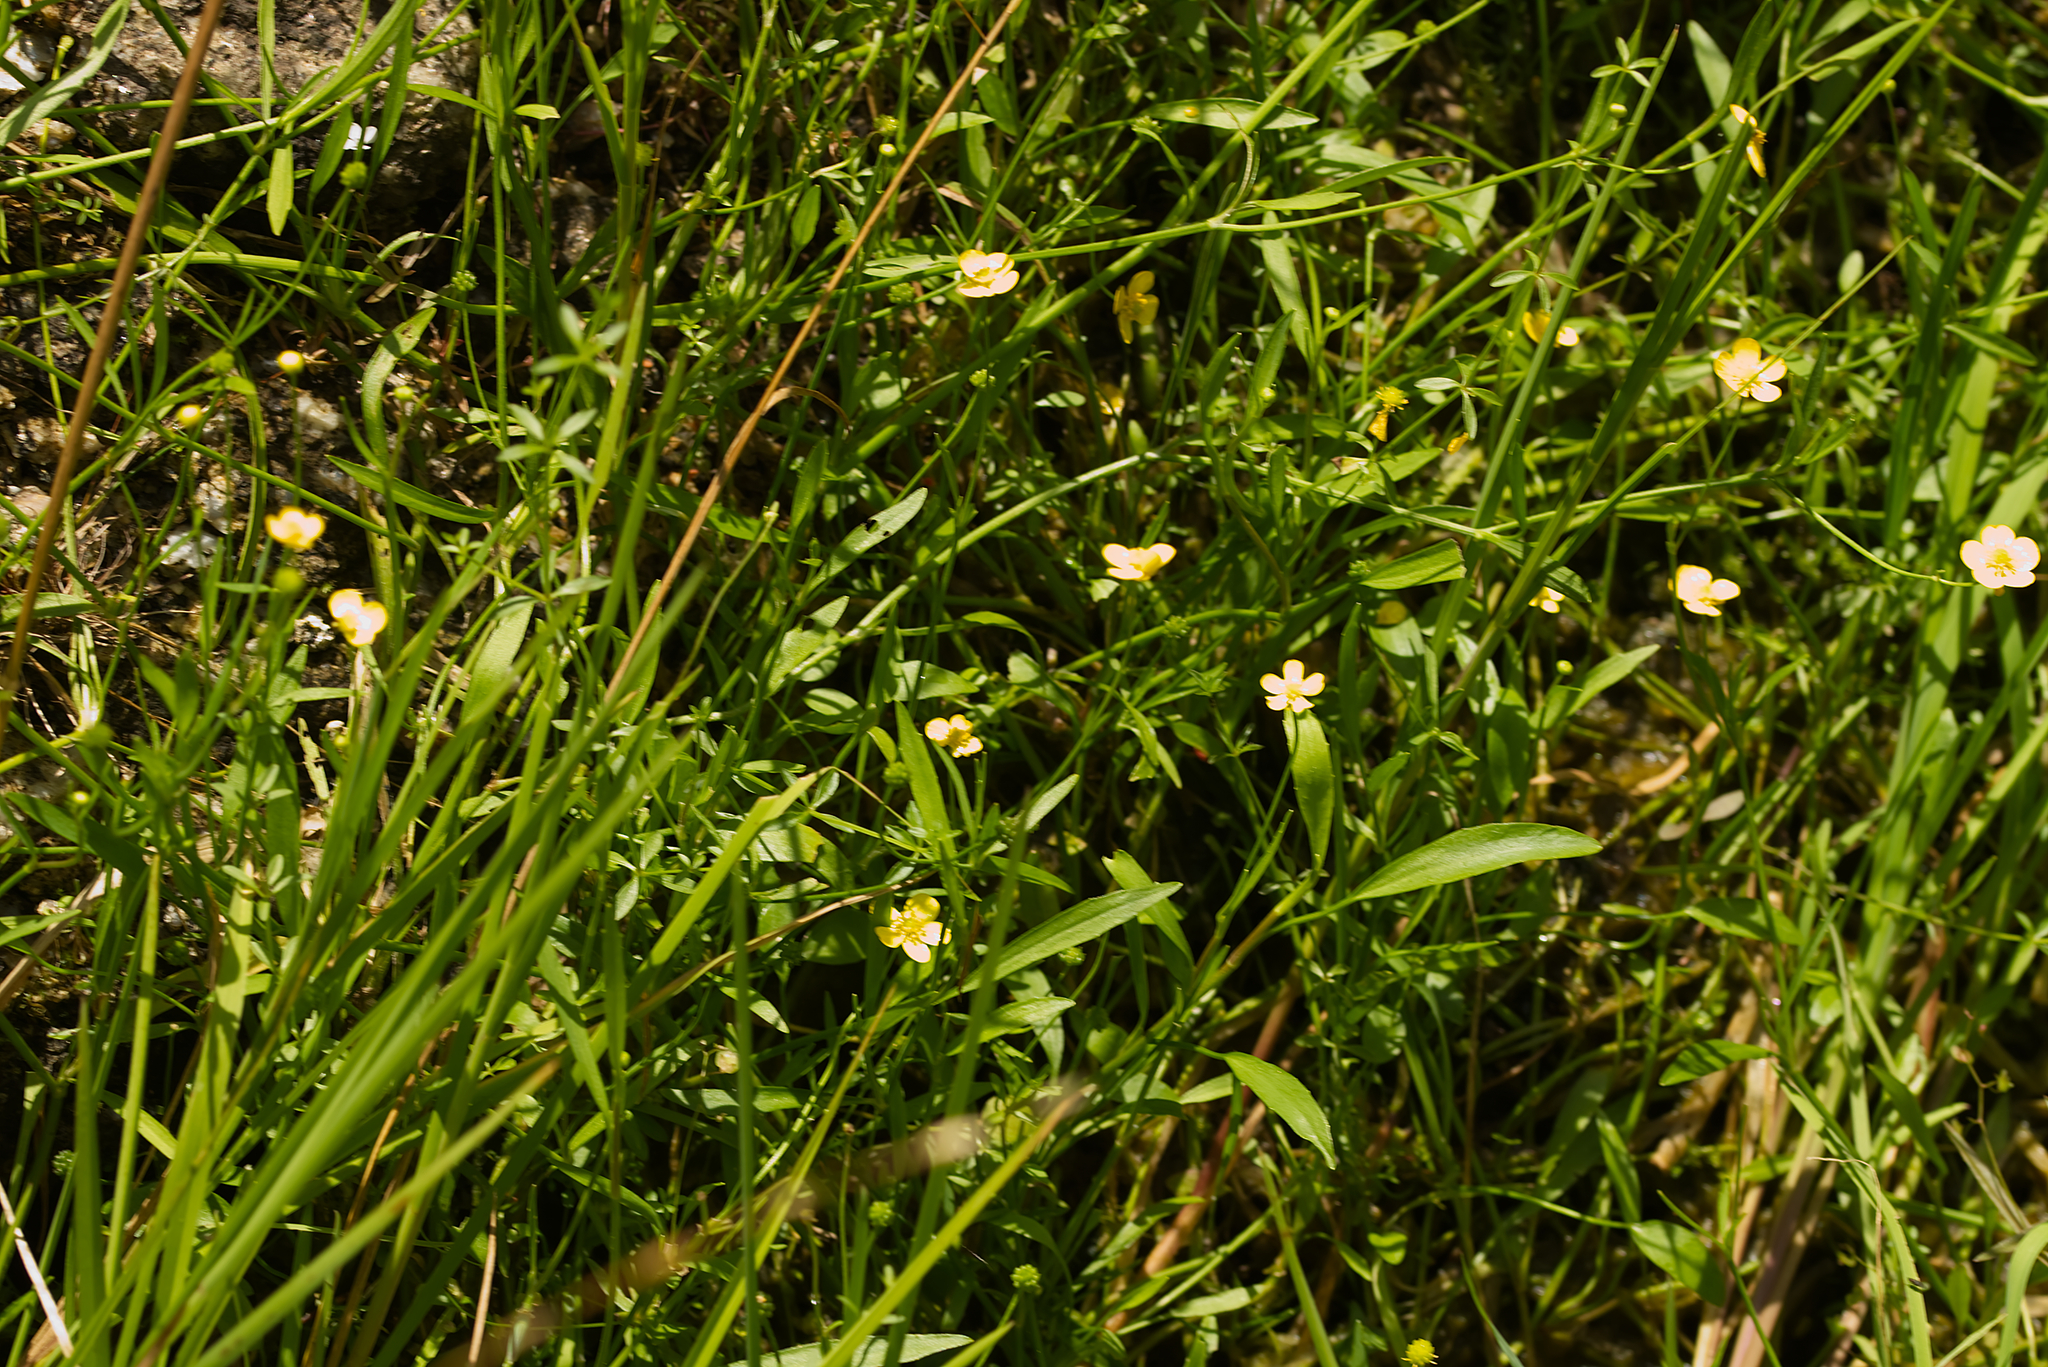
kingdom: Plantae
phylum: Tracheophyta
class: Magnoliopsida
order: Ranunculales
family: Ranunculaceae
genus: Ranunculus
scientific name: Ranunculus flammula
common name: Lesser spearwort
